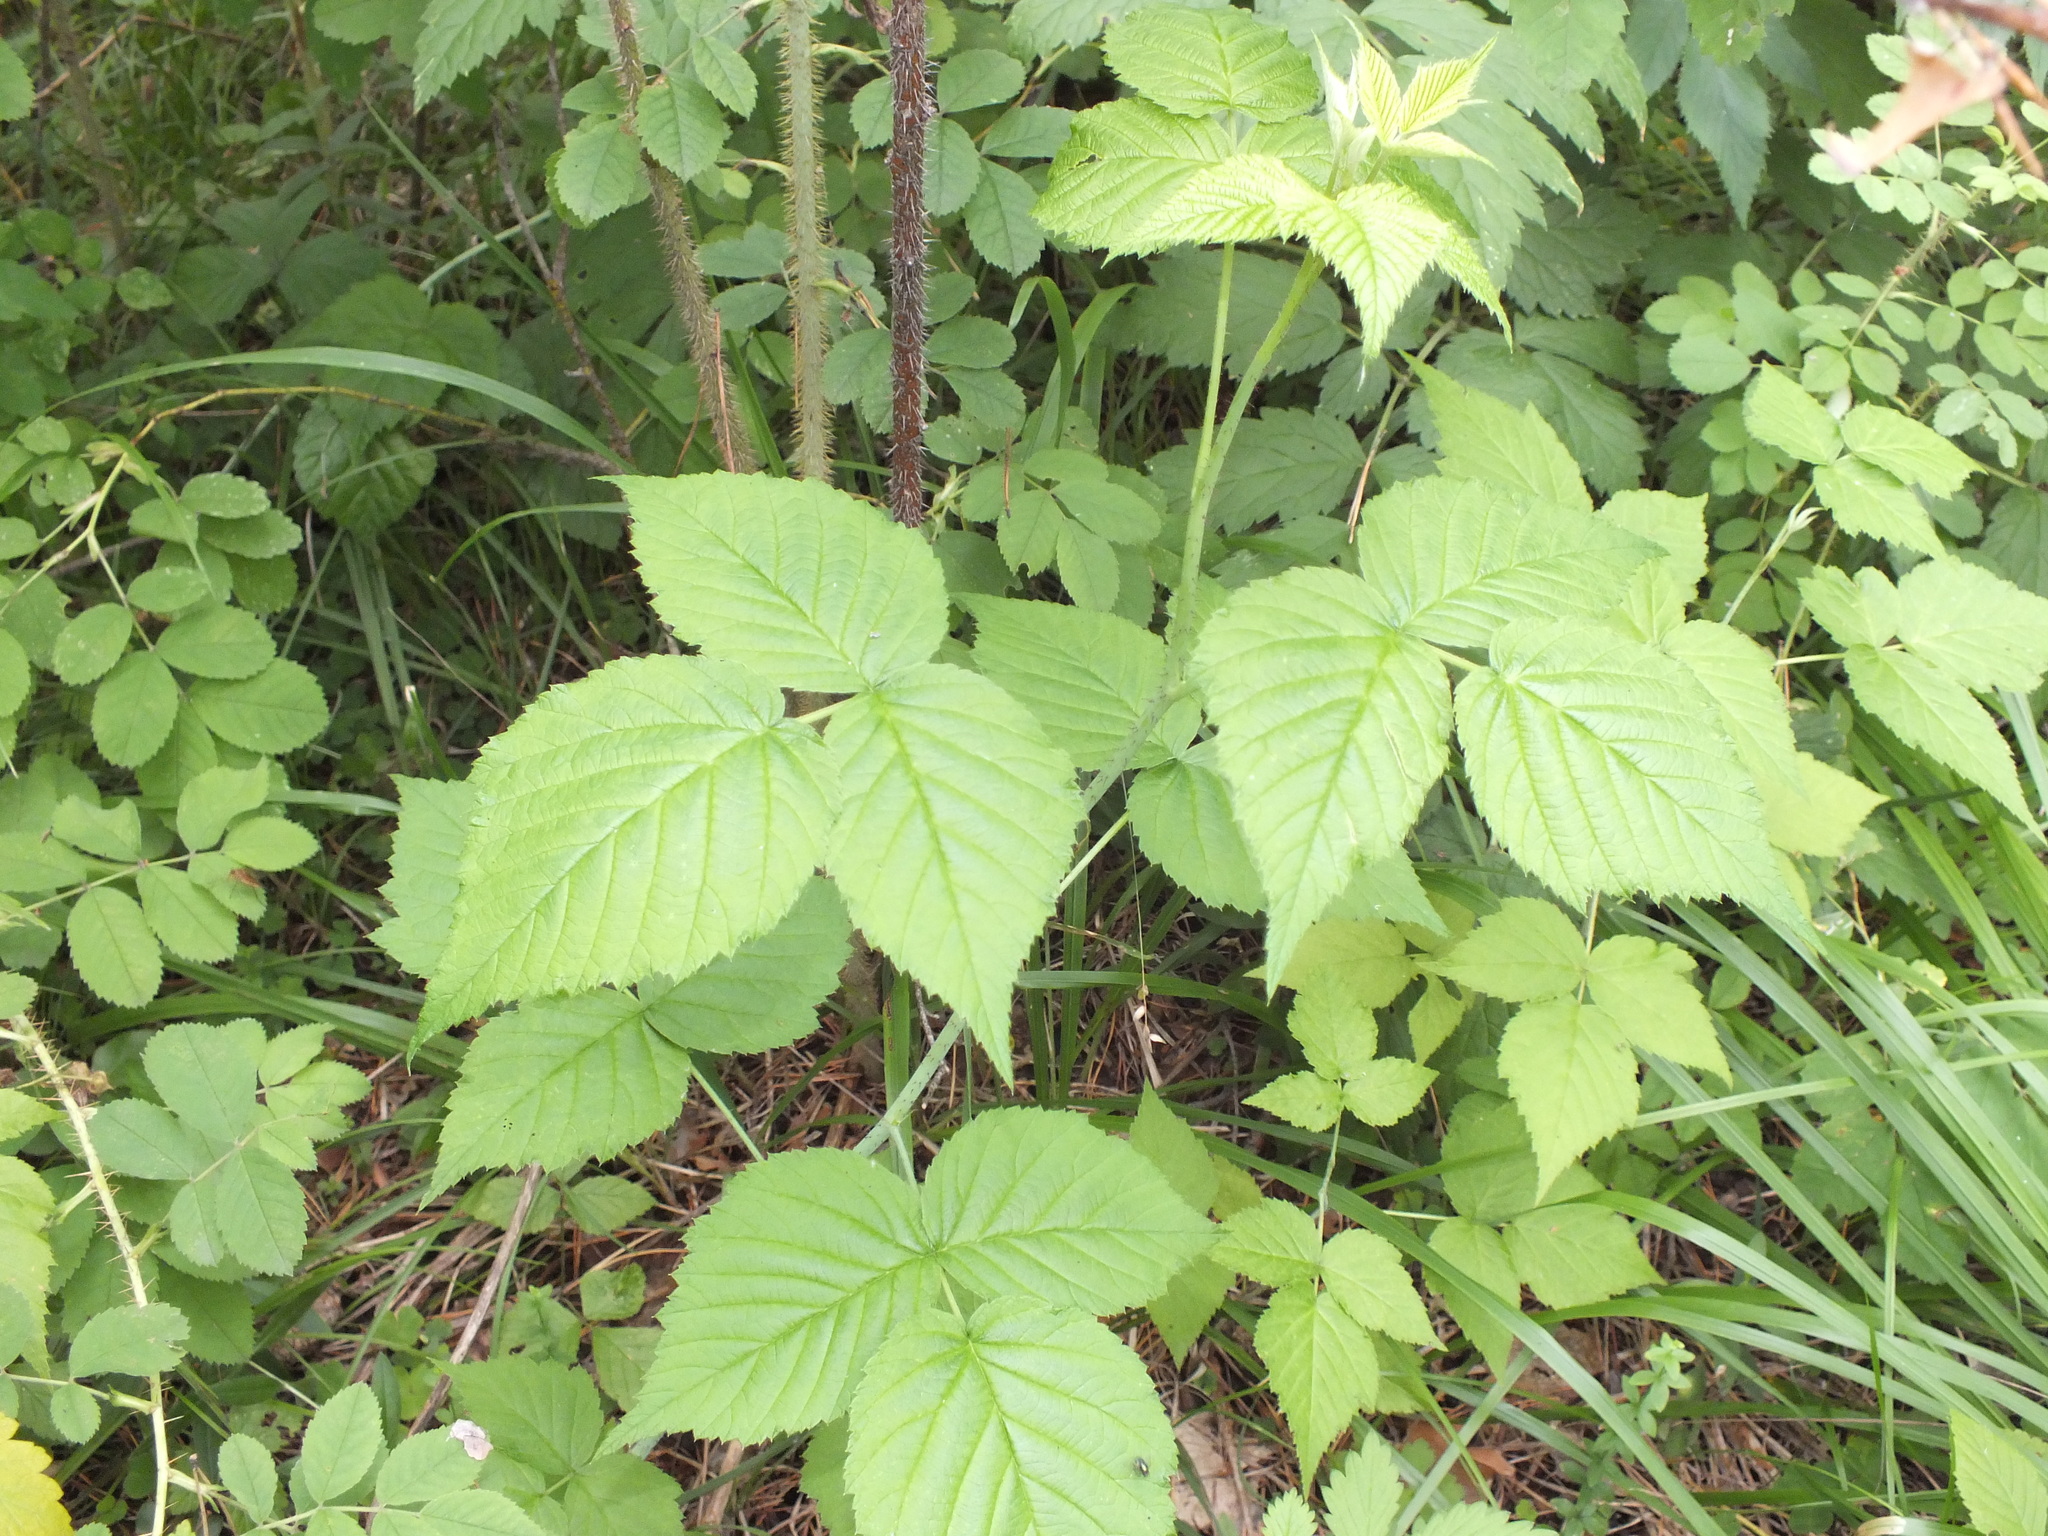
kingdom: Plantae
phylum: Tracheophyta
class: Magnoliopsida
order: Rosales
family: Rosaceae
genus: Rubus
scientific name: Rubus idaeus
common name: Raspberry
